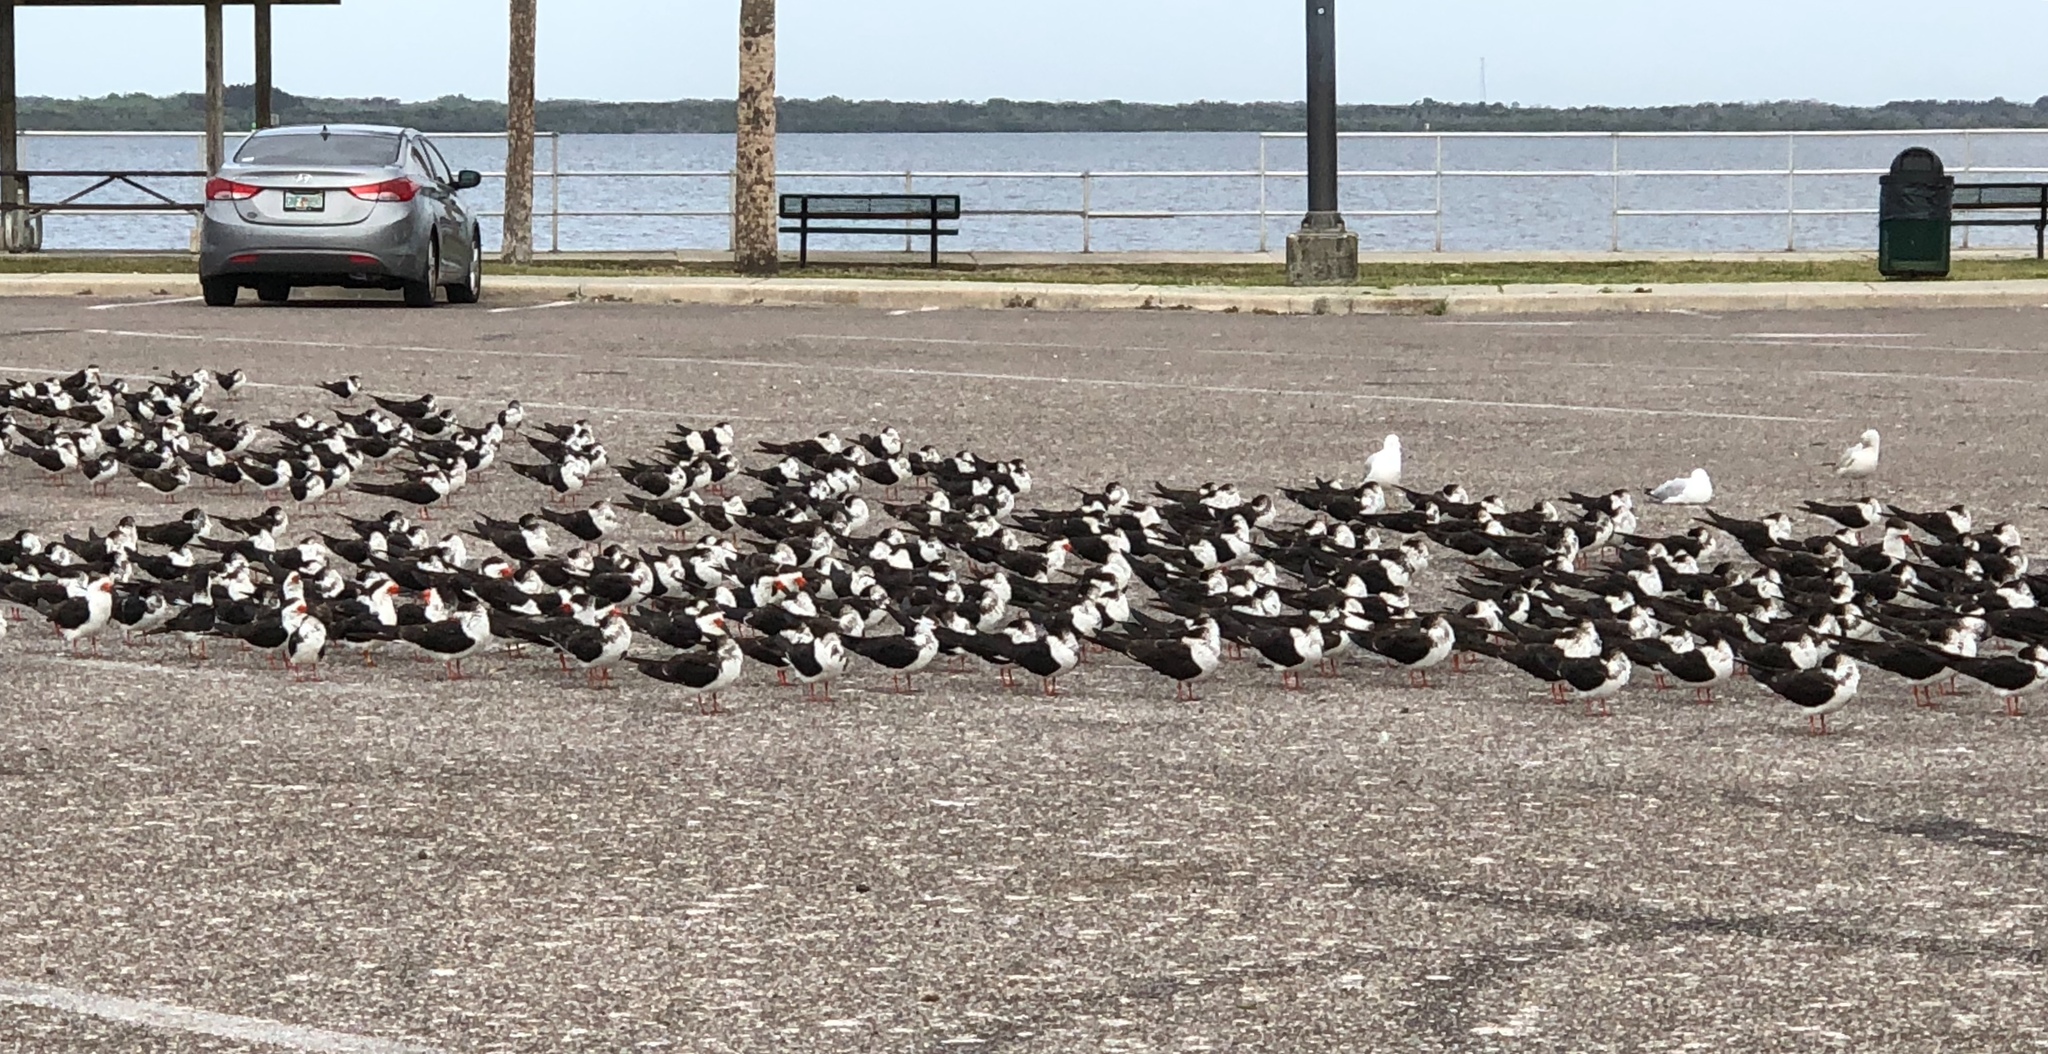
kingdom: Animalia
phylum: Chordata
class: Aves
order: Charadriiformes
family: Laridae
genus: Rynchops
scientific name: Rynchops niger
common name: Black skimmer
